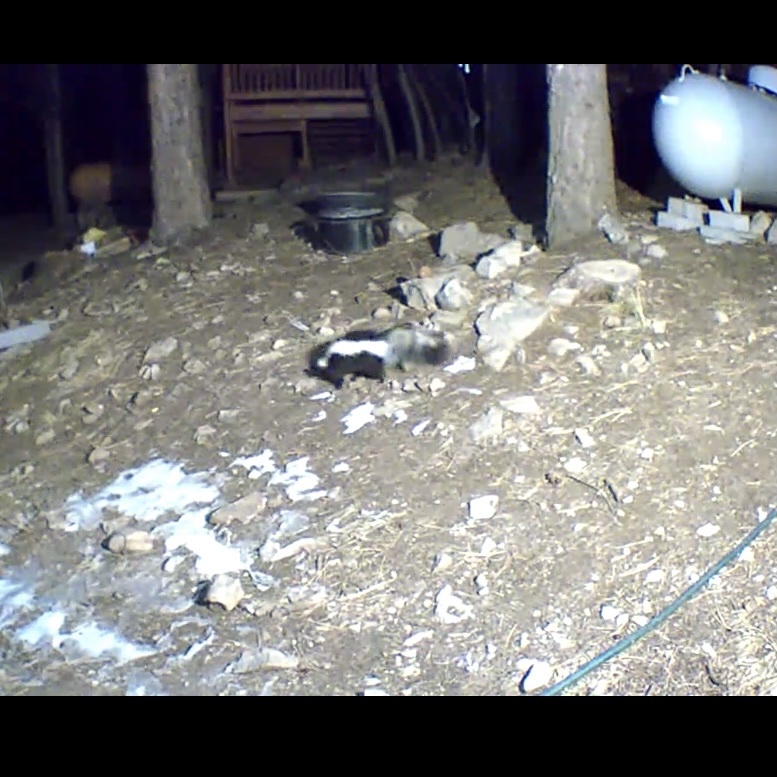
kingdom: Animalia
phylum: Chordata
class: Mammalia
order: Carnivora
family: Mephitidae
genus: Mephitis
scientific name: Mephitis mephitis
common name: Striped skunk
